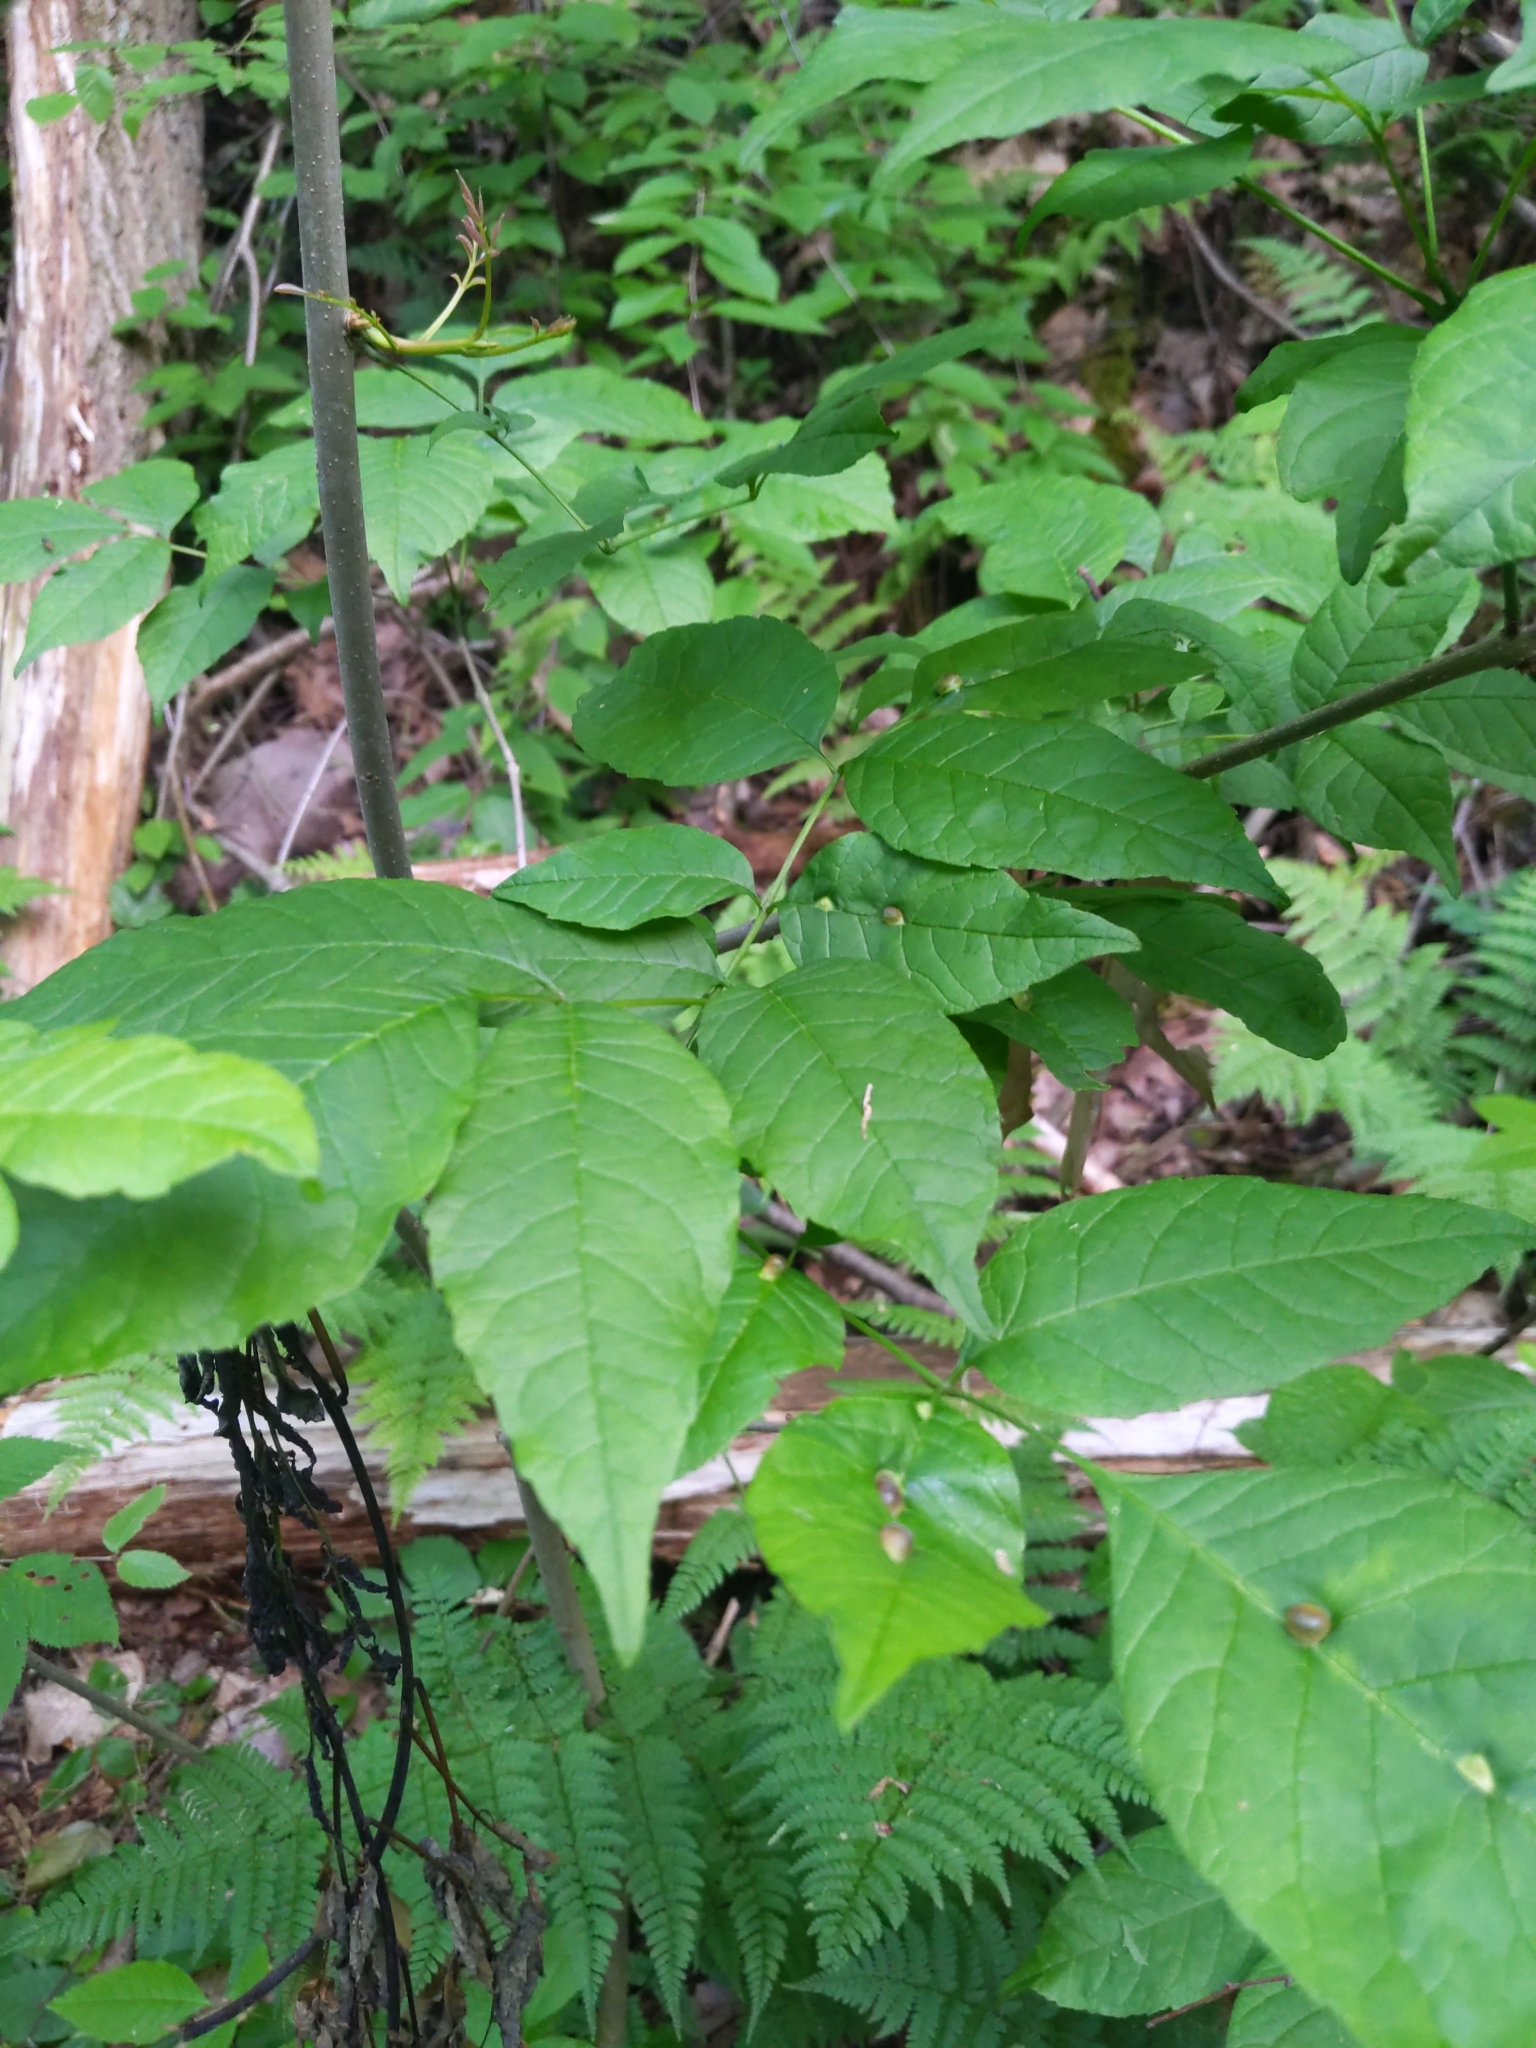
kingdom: Animalia
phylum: Arthropoda
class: Insecta
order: Diptera
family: Cecidomyiidae
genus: Dasineura
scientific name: Dasineura pellex
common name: Ash bullet gall midge
